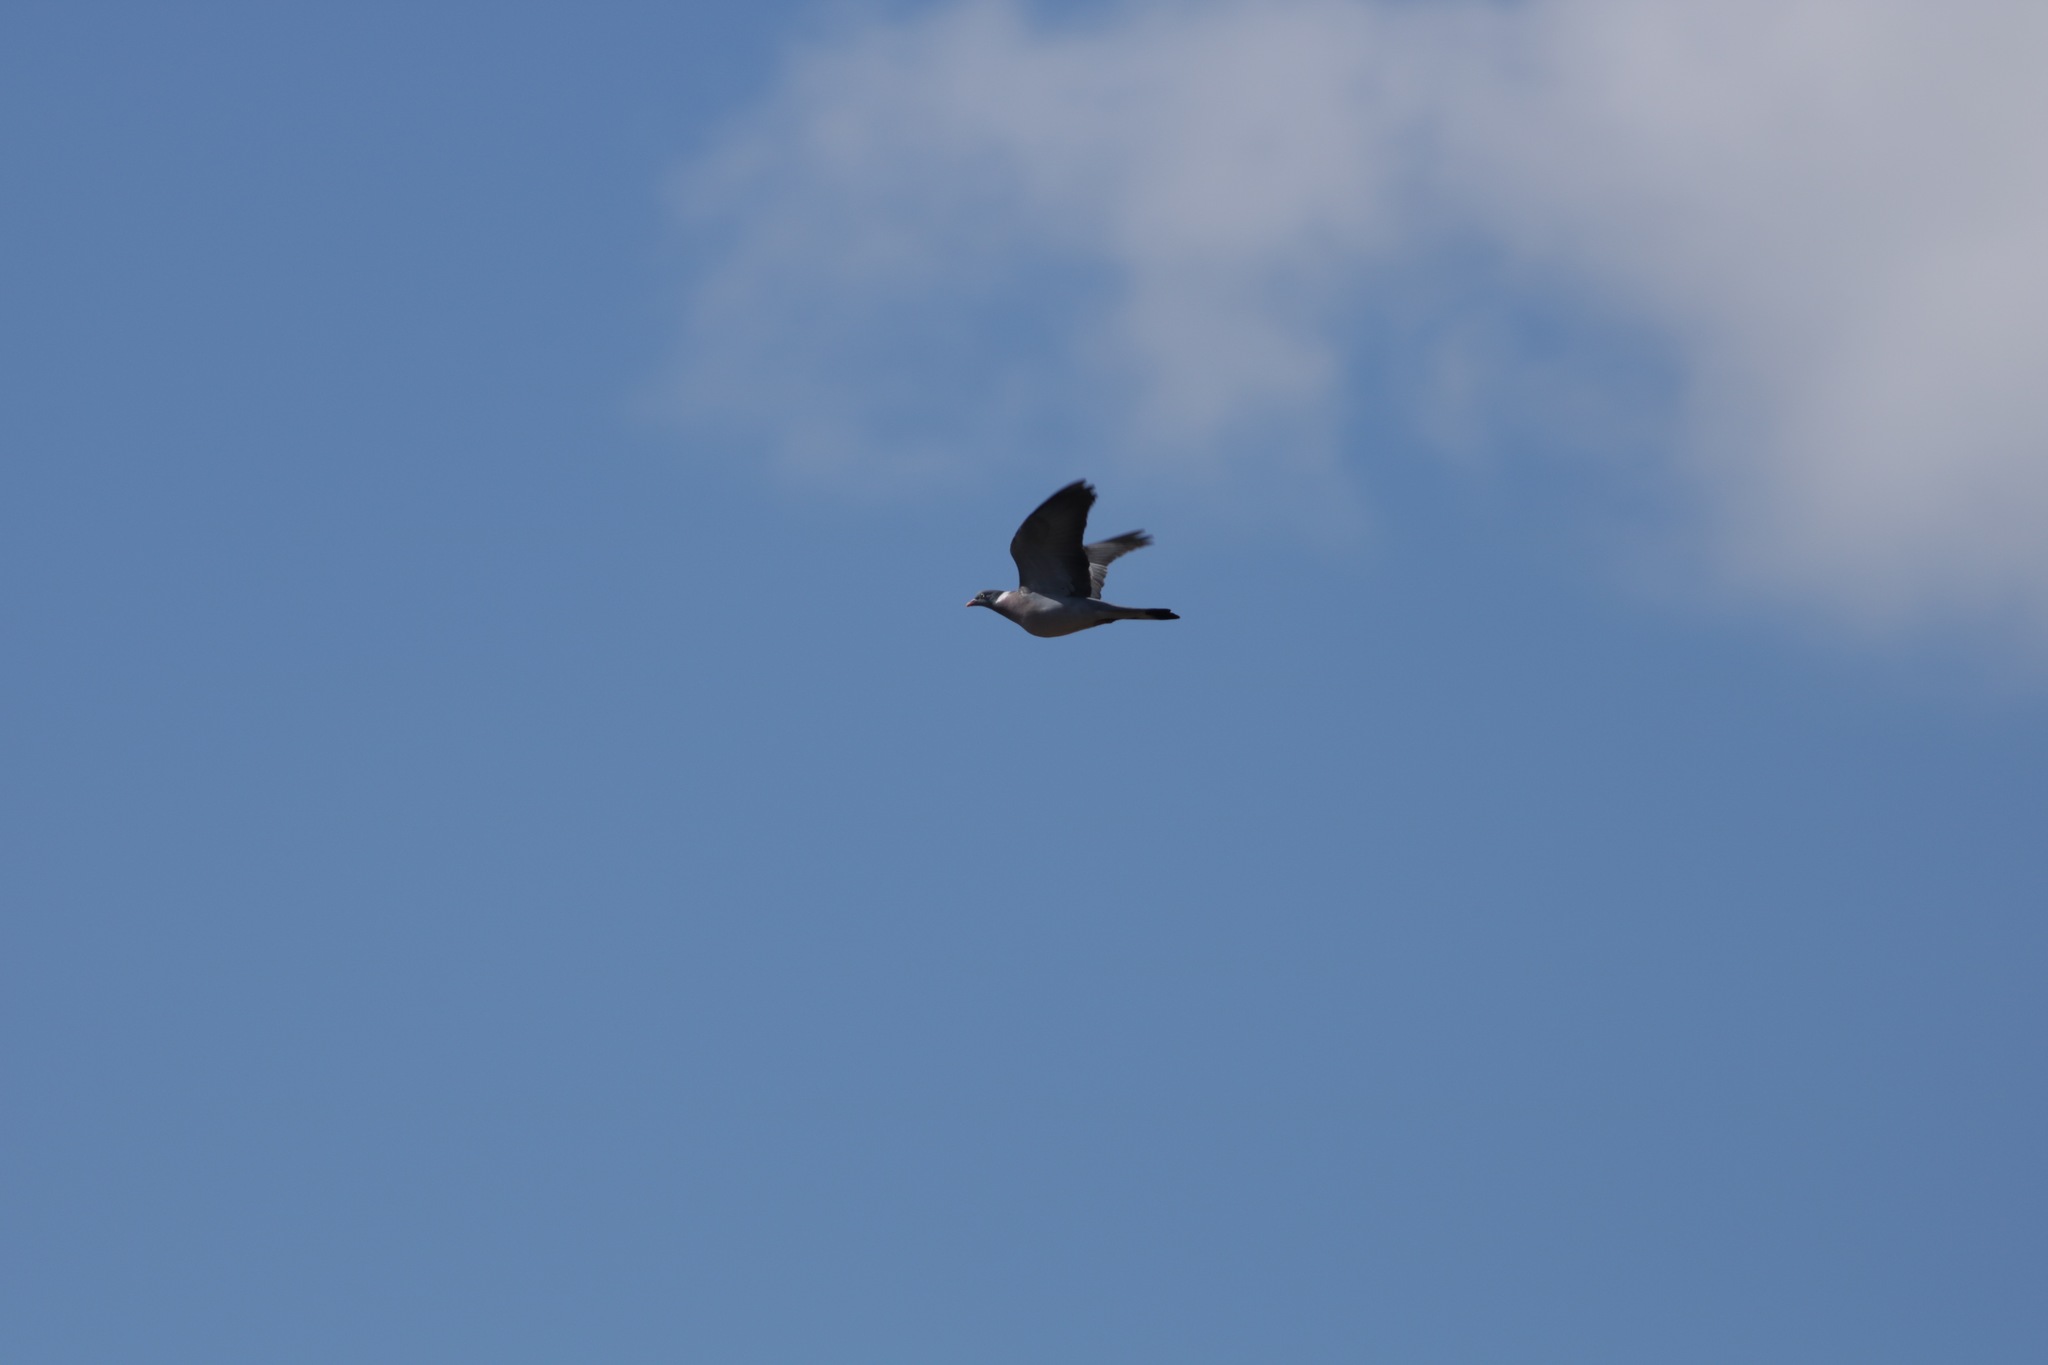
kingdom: Animalia
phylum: Chordata
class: Aves
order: Columbiformes
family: Columbidae
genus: Columba
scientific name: Columba palumbus
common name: Common wood pigeon
